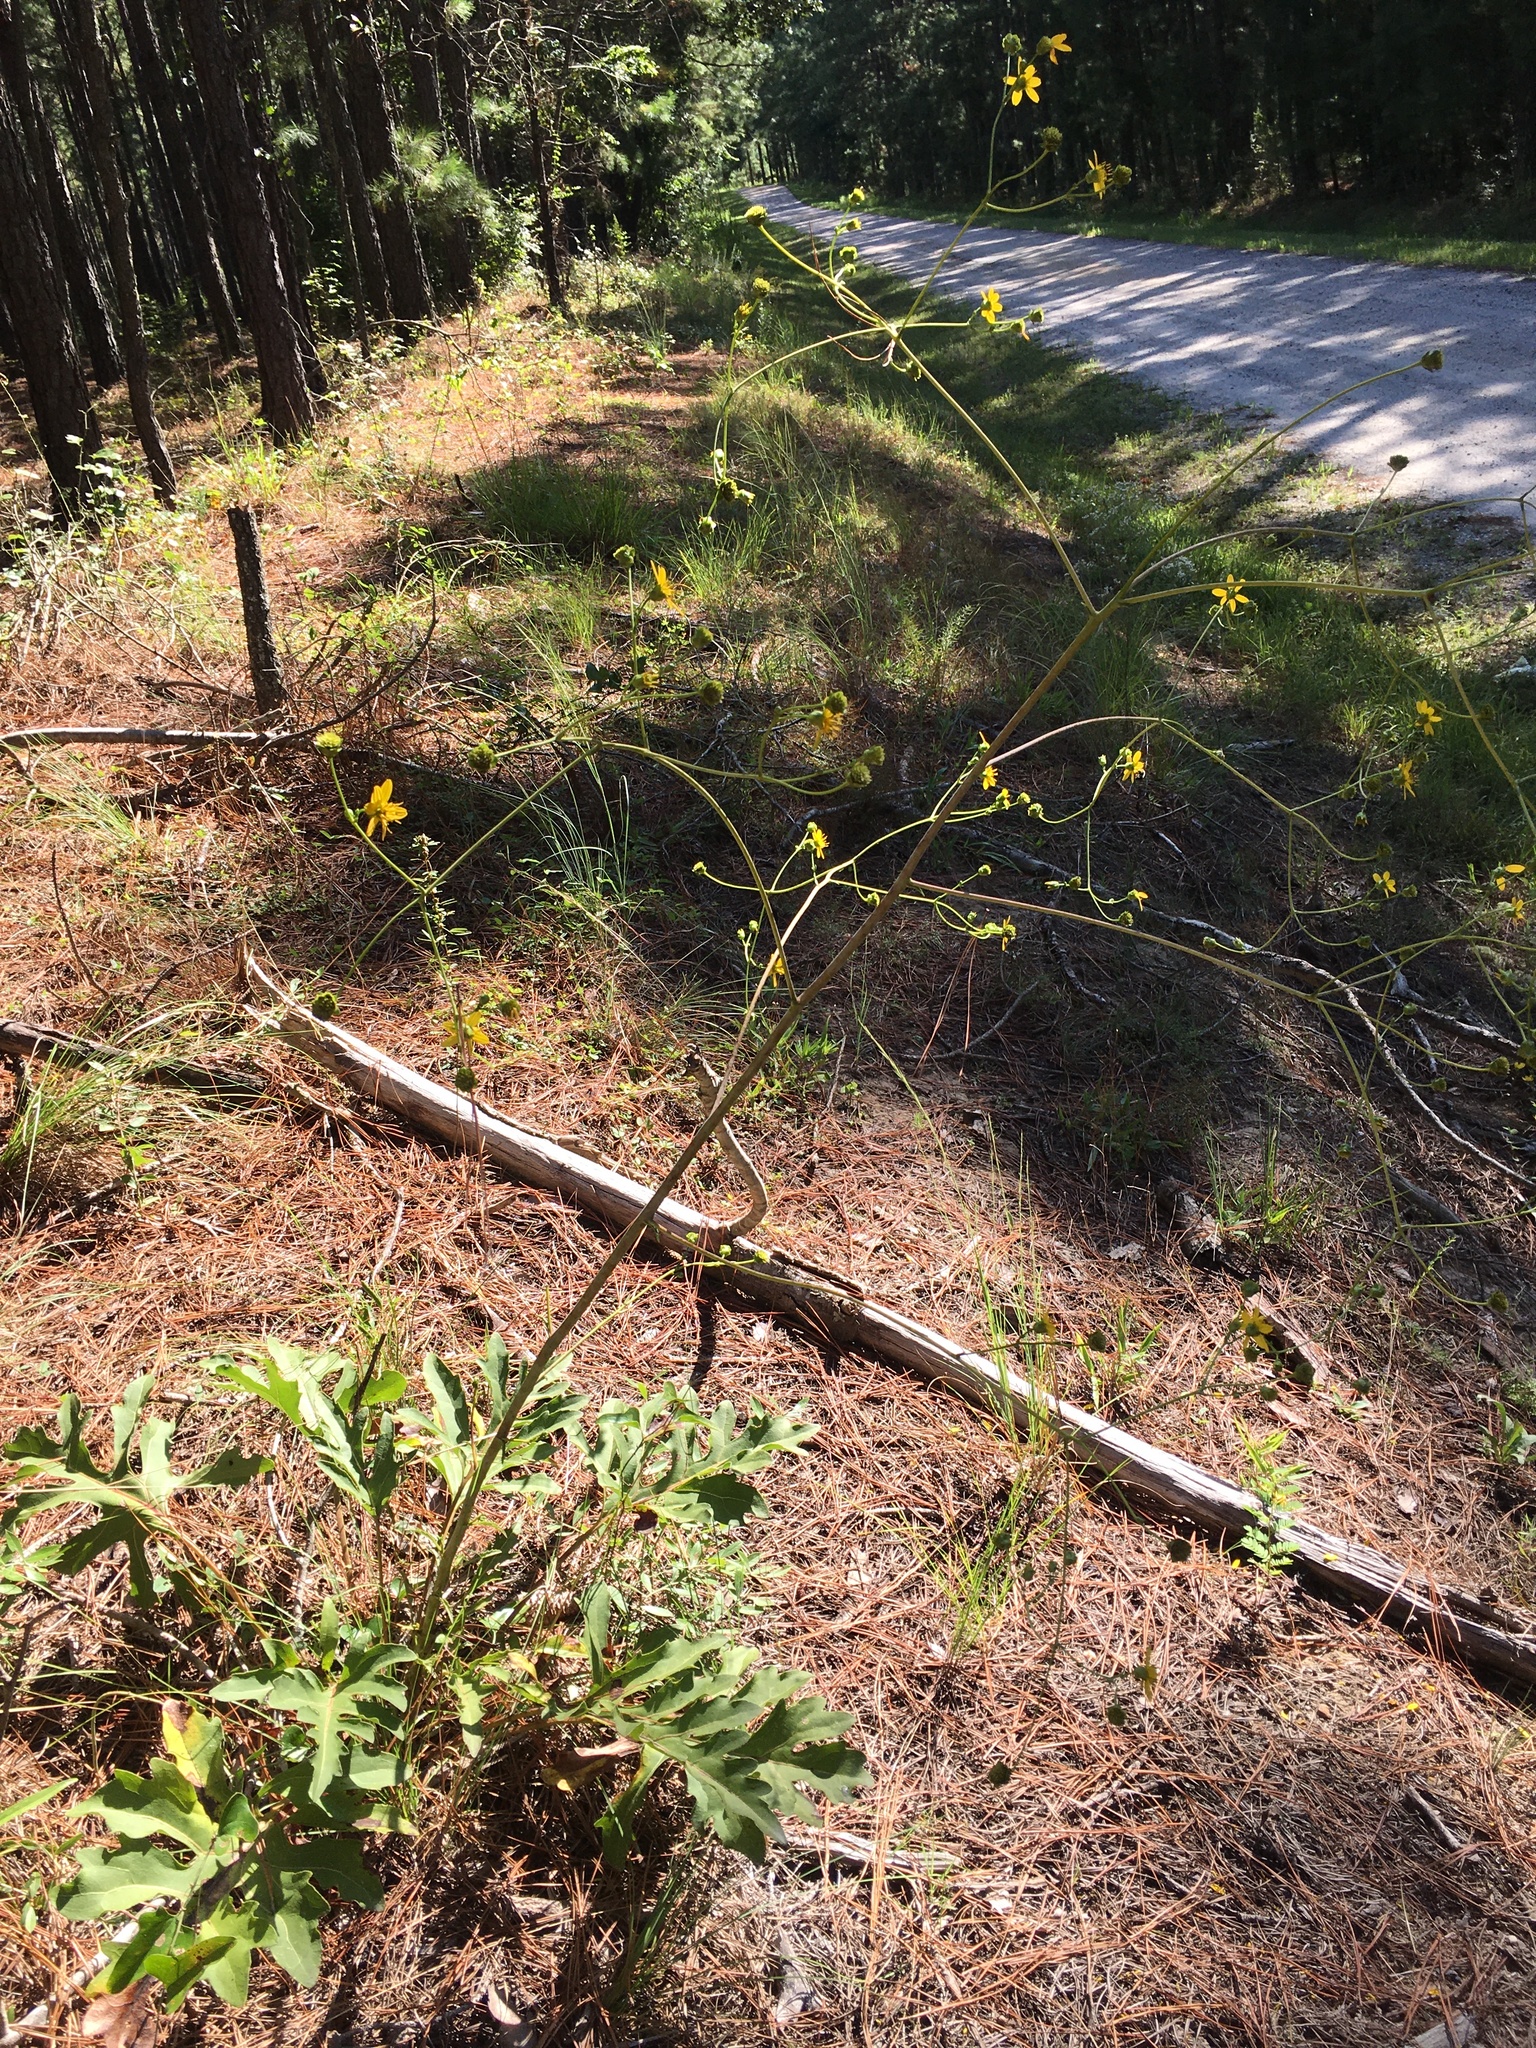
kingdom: Plantae
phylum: Tracheophyta
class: Magnoliopsida
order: Asterales
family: Asteraceae
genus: Silphium
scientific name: Silphium compositum
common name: Lesser basal-leaf rosinweed
